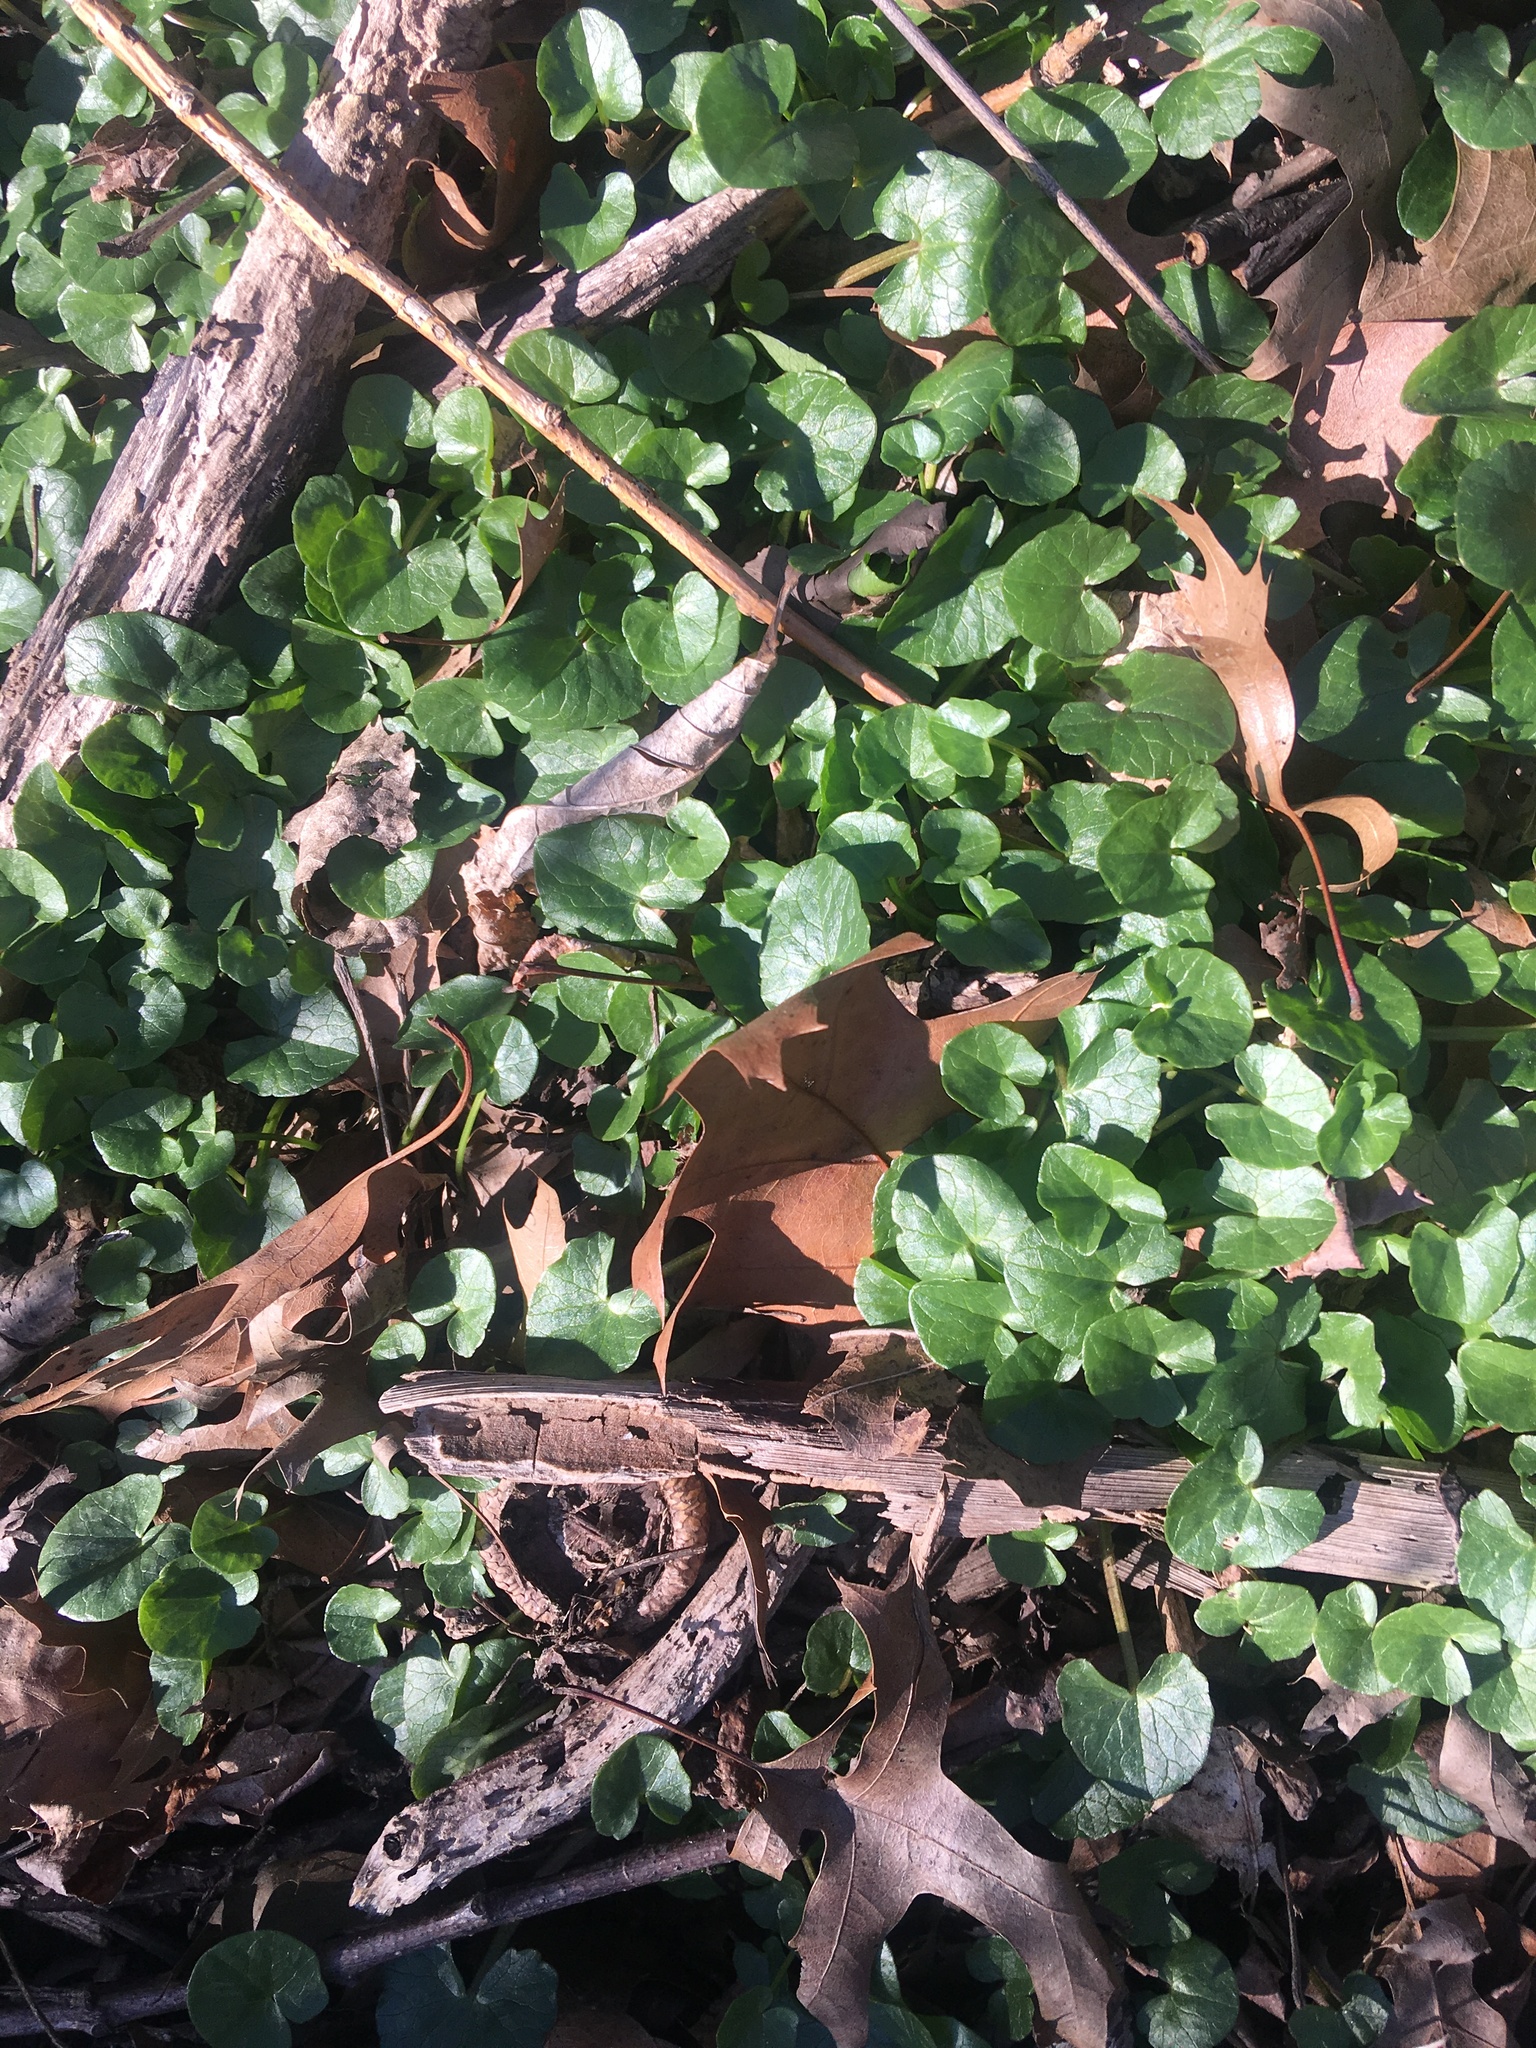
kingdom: Plantae
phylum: Tracheophyta
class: Magnoliopsida
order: Ranunculales
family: Ranunculaceae
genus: Ficaria
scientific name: Ficaria verna
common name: Lesser celandine
